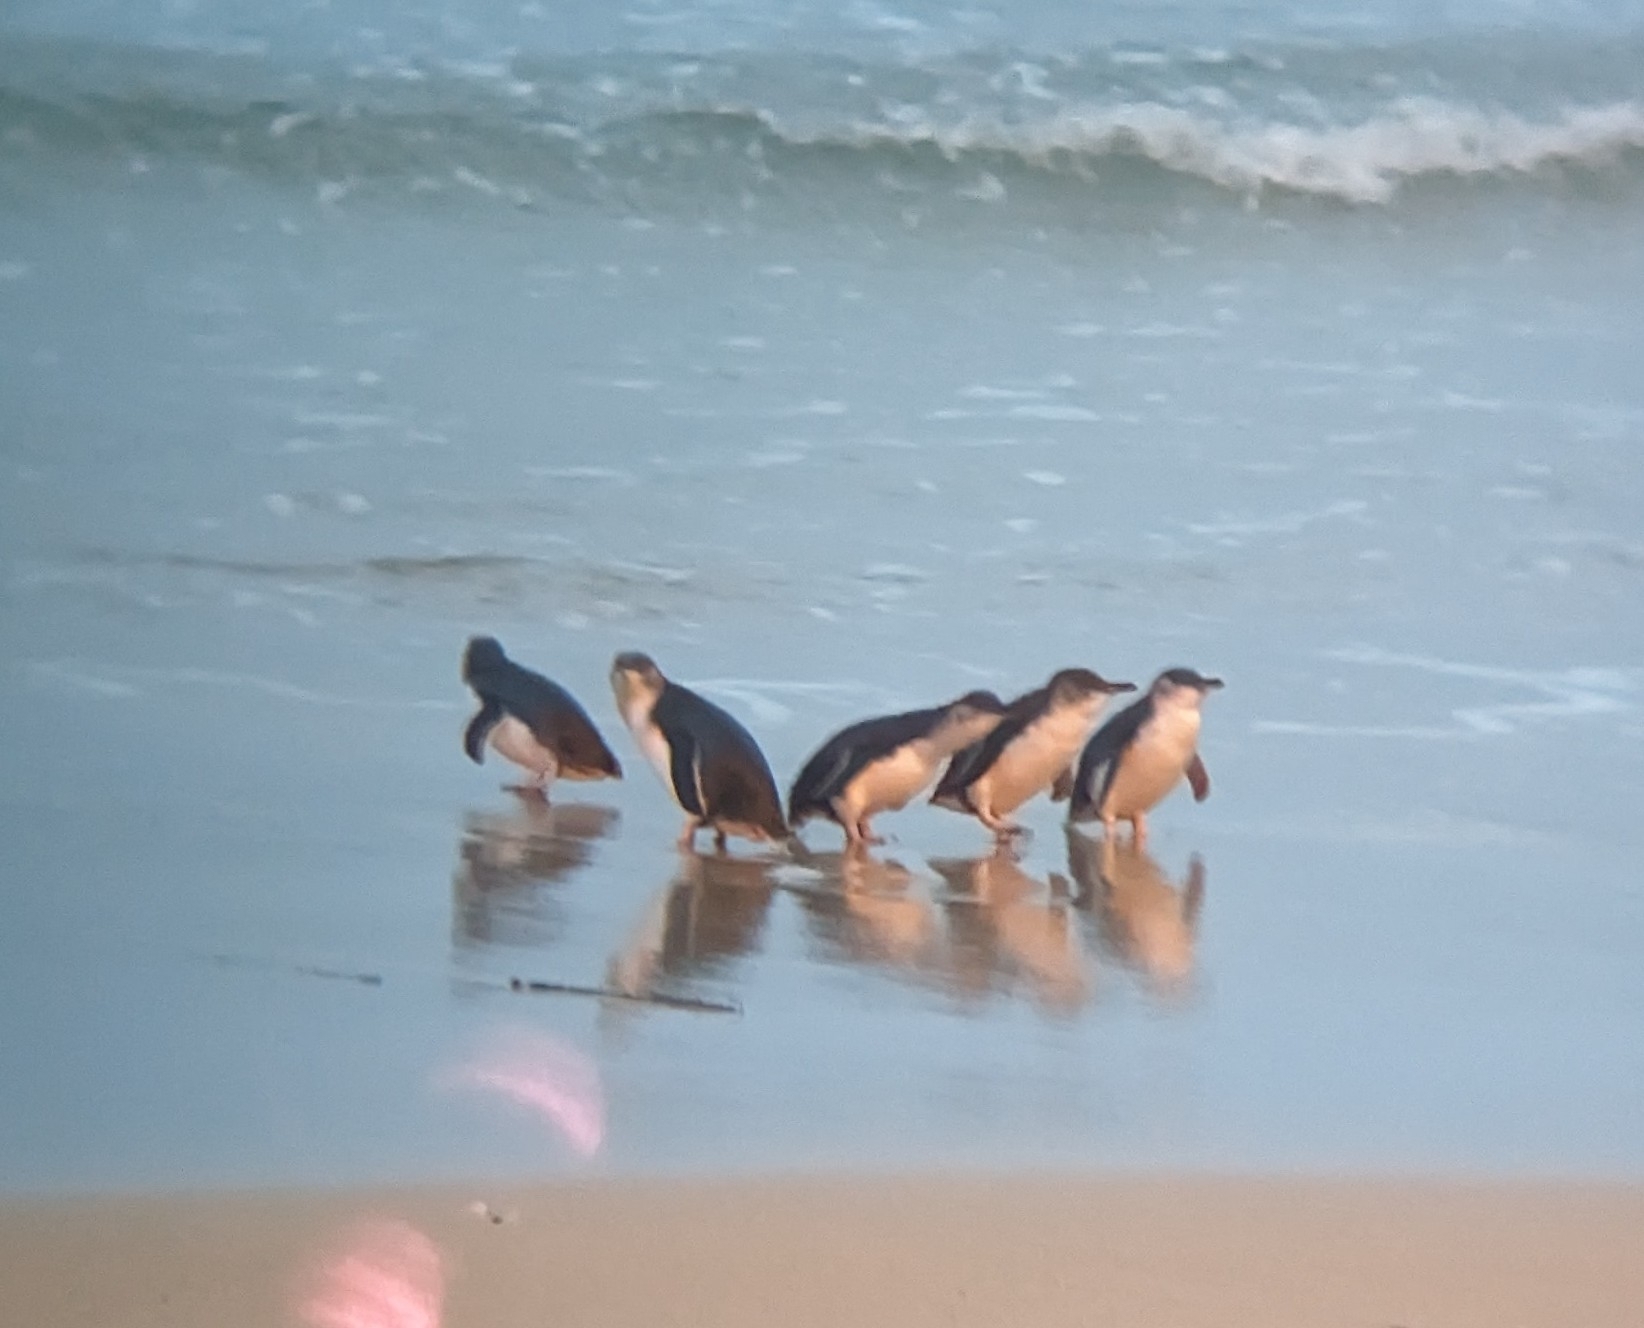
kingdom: Animalia
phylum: Chordata
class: Aves
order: Sphenisciformes
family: Spheniscidae
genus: Eudyptula
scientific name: Eudyptula minor
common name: Little penguin
